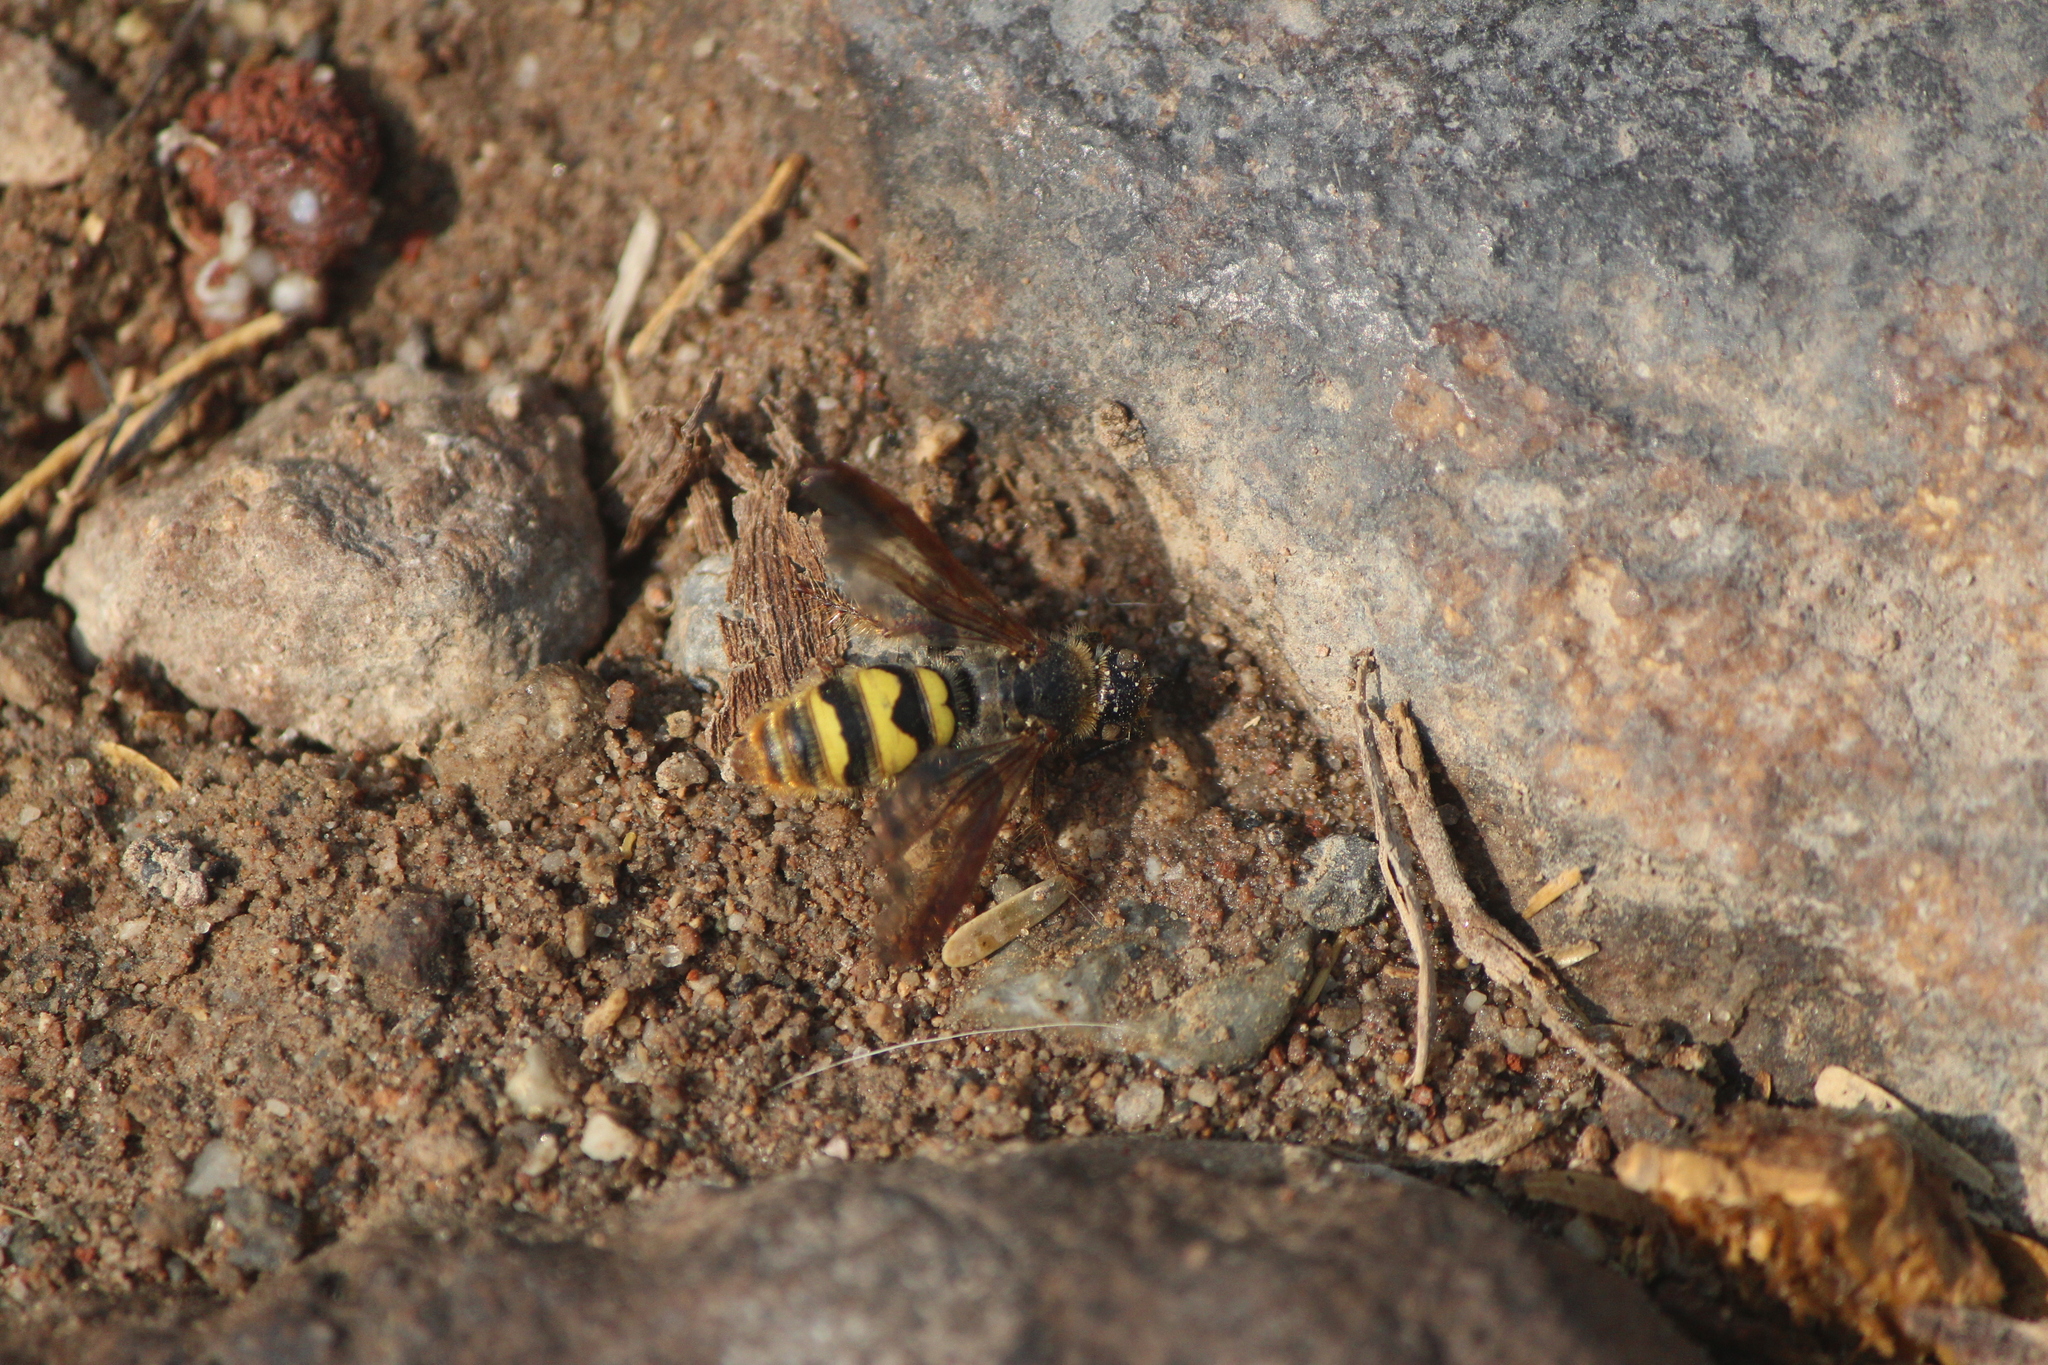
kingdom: Animalia
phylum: Arthropoda
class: Insecta
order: Hymenoptera
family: Scoliidae
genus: Xanthocampsomeris
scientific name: Xanthocampsomeris completa
